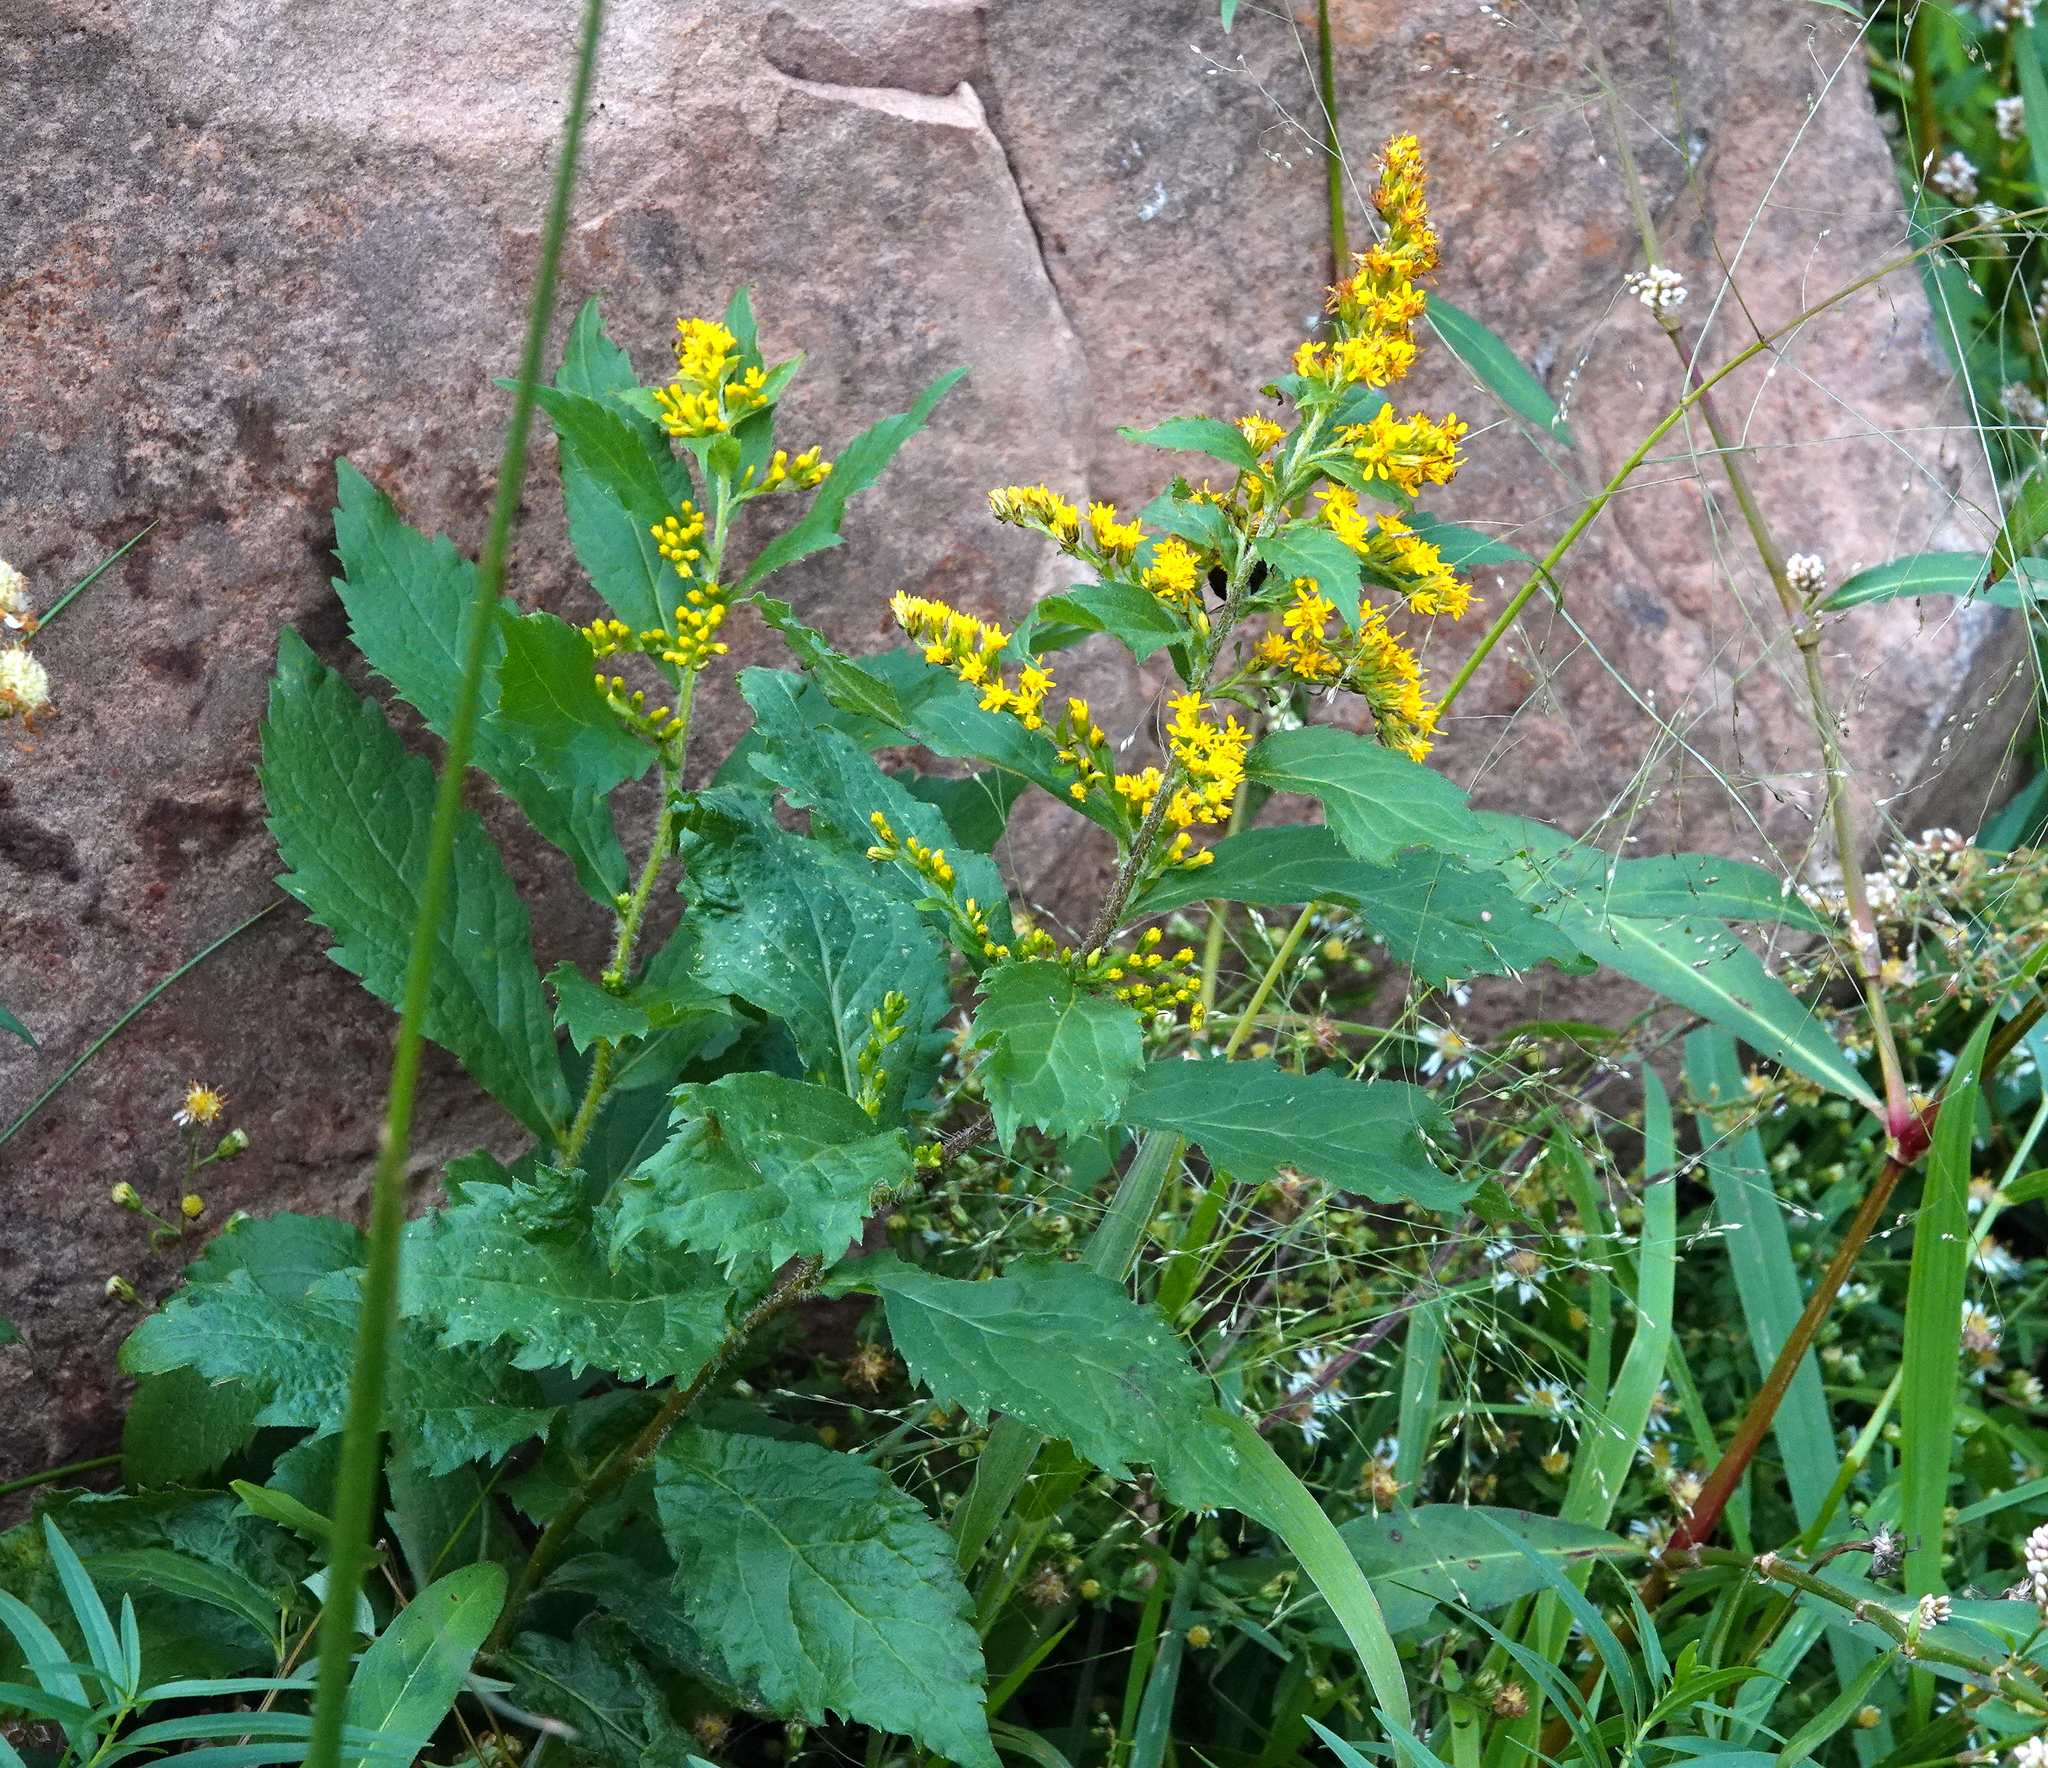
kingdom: Plantae
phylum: Tracheophyta
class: Magnoliopsida
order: Asterales
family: Asteraceae
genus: Solidago
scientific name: Solidago rugosa
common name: Rough-stemmed goldenrod
